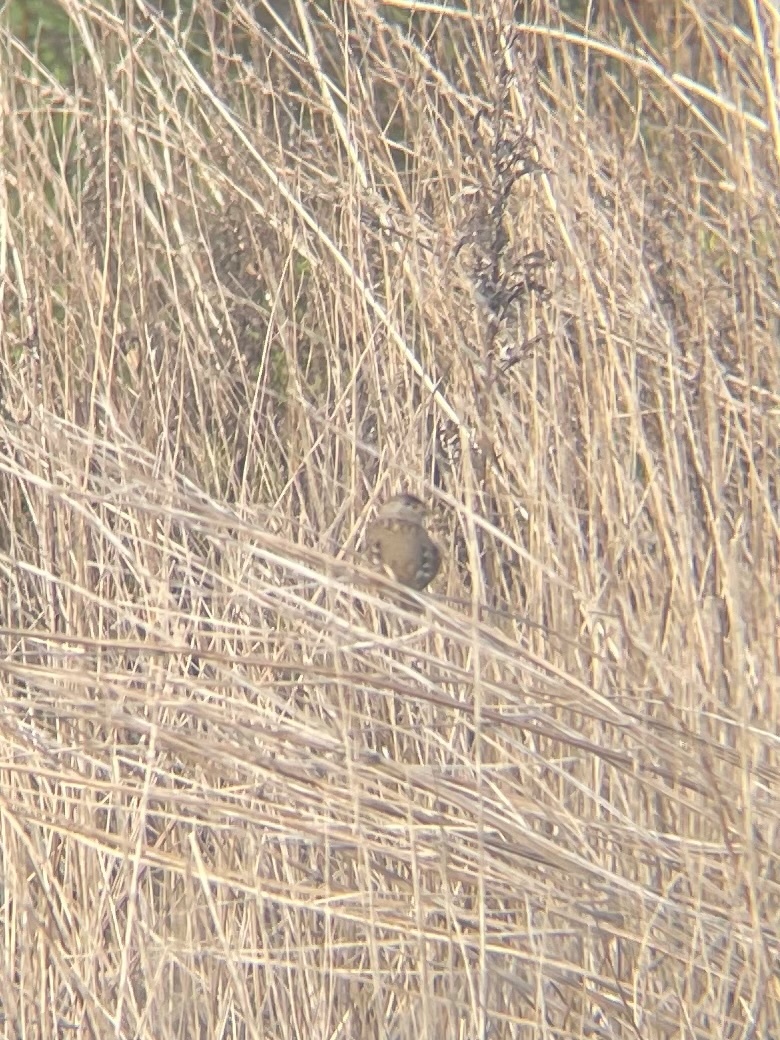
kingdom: Animalia
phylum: Chordata
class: Aves
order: Passeriformes
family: Passerellidae
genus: Zonotrichia
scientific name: Zonotrichia leucophrys
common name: White-crowned sparrow
